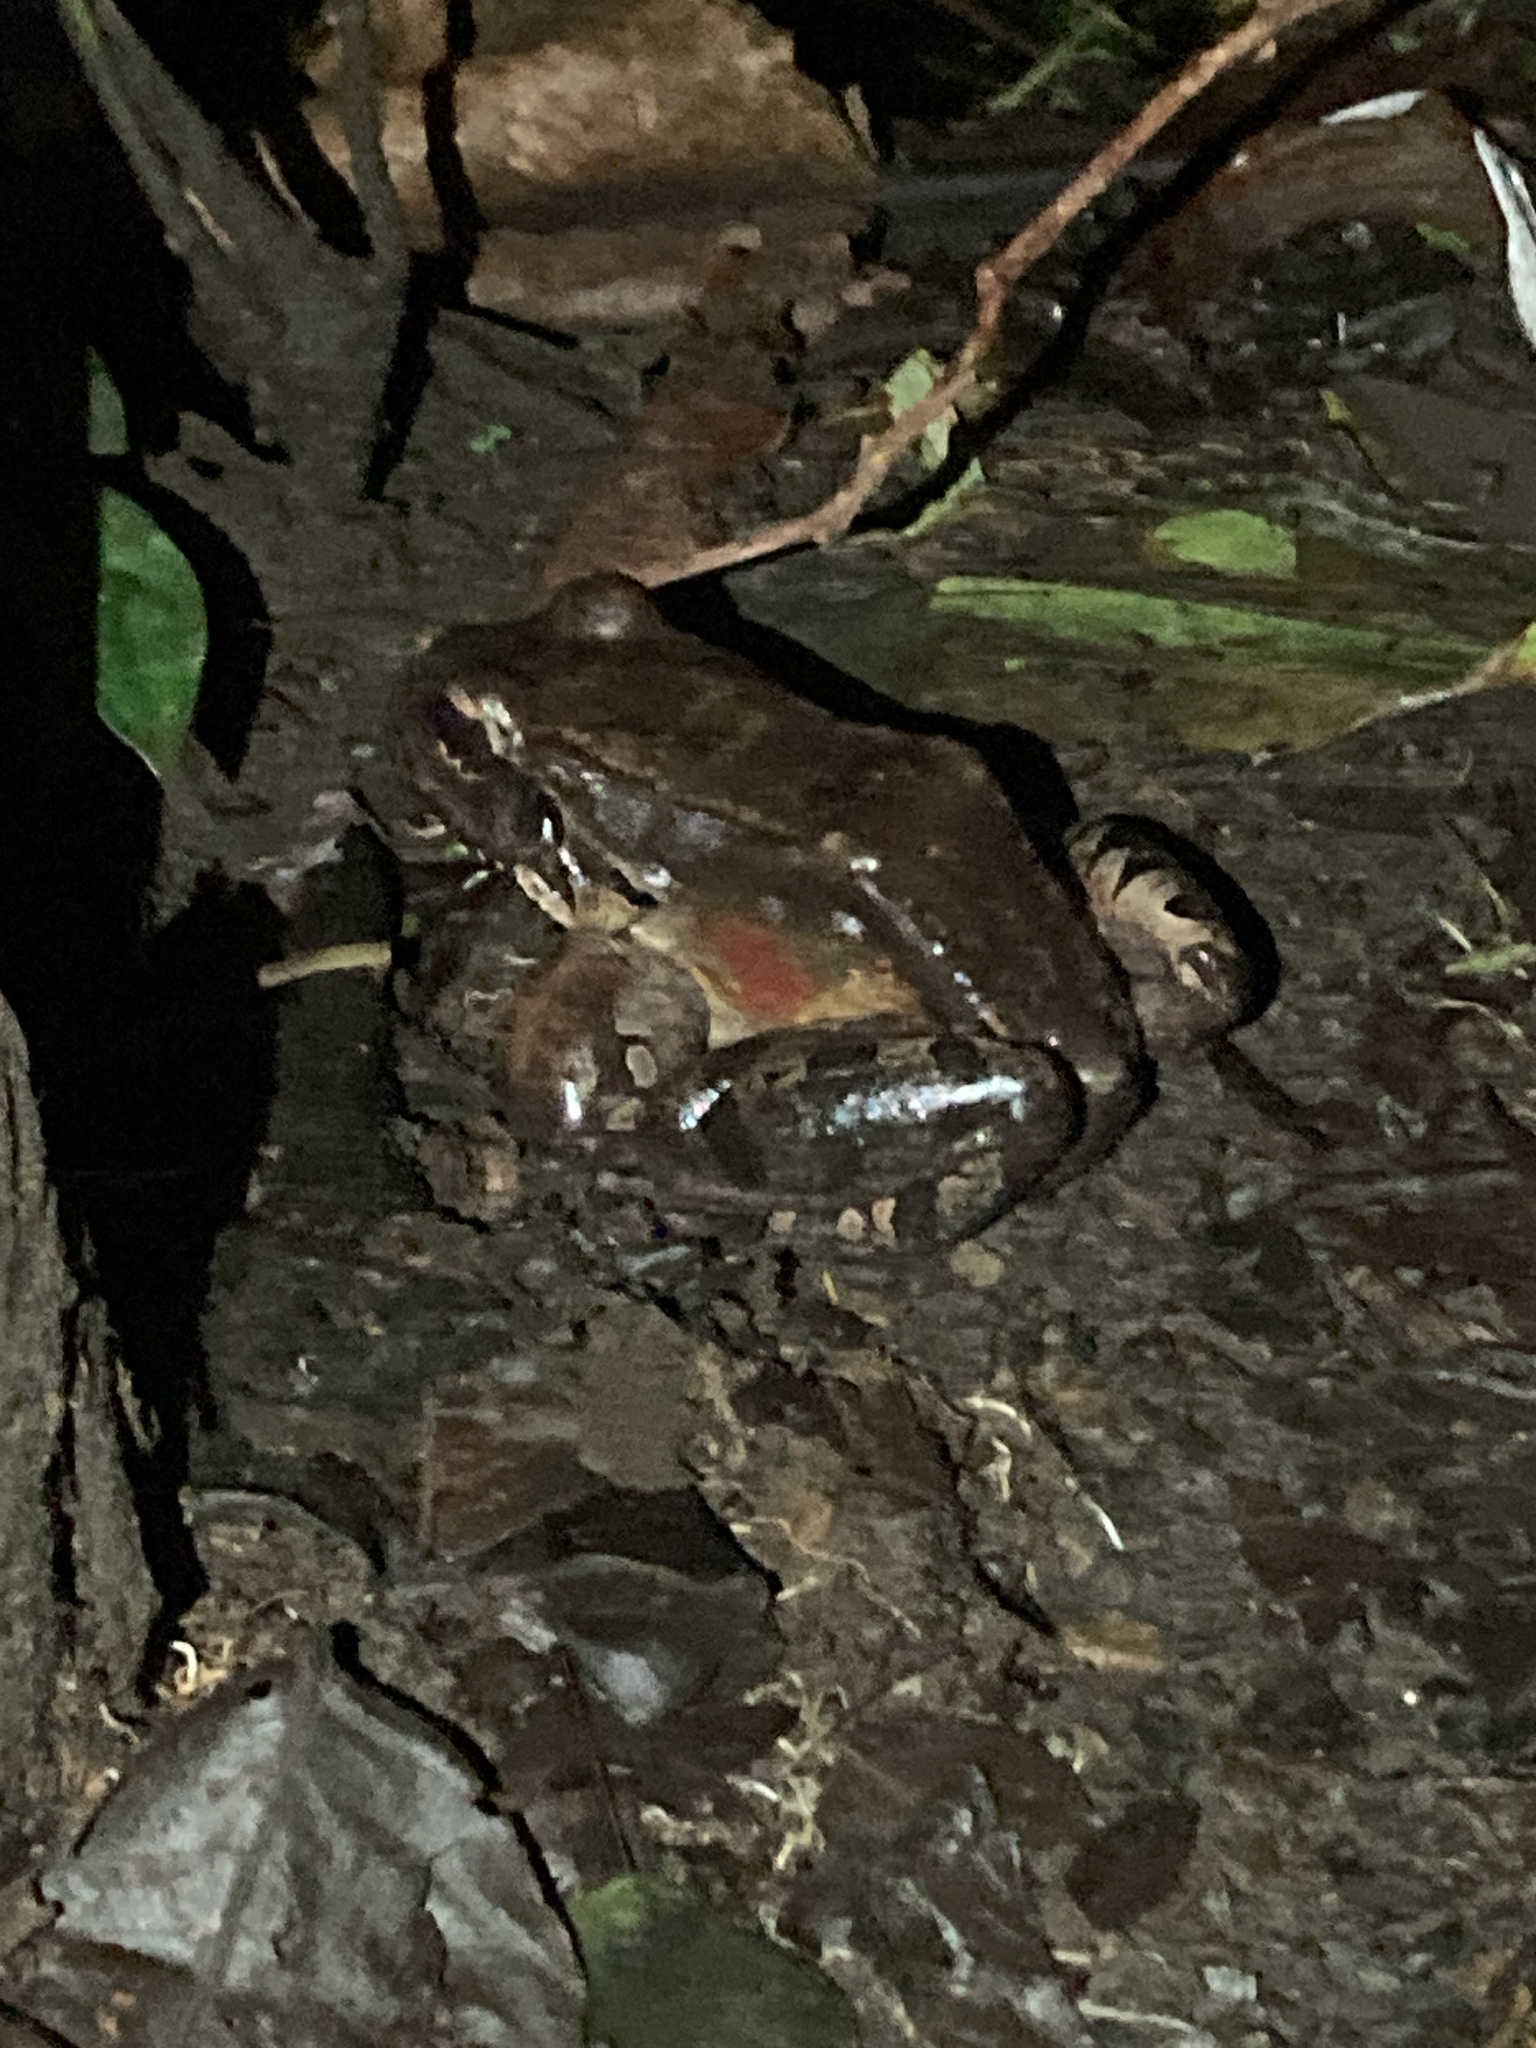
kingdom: Animalia
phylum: Chordata
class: Amphibia
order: Anura
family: Leptodactylidae
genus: Leptodactylus
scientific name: Leptodactylus savagei
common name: Savage's thin-toed frog
